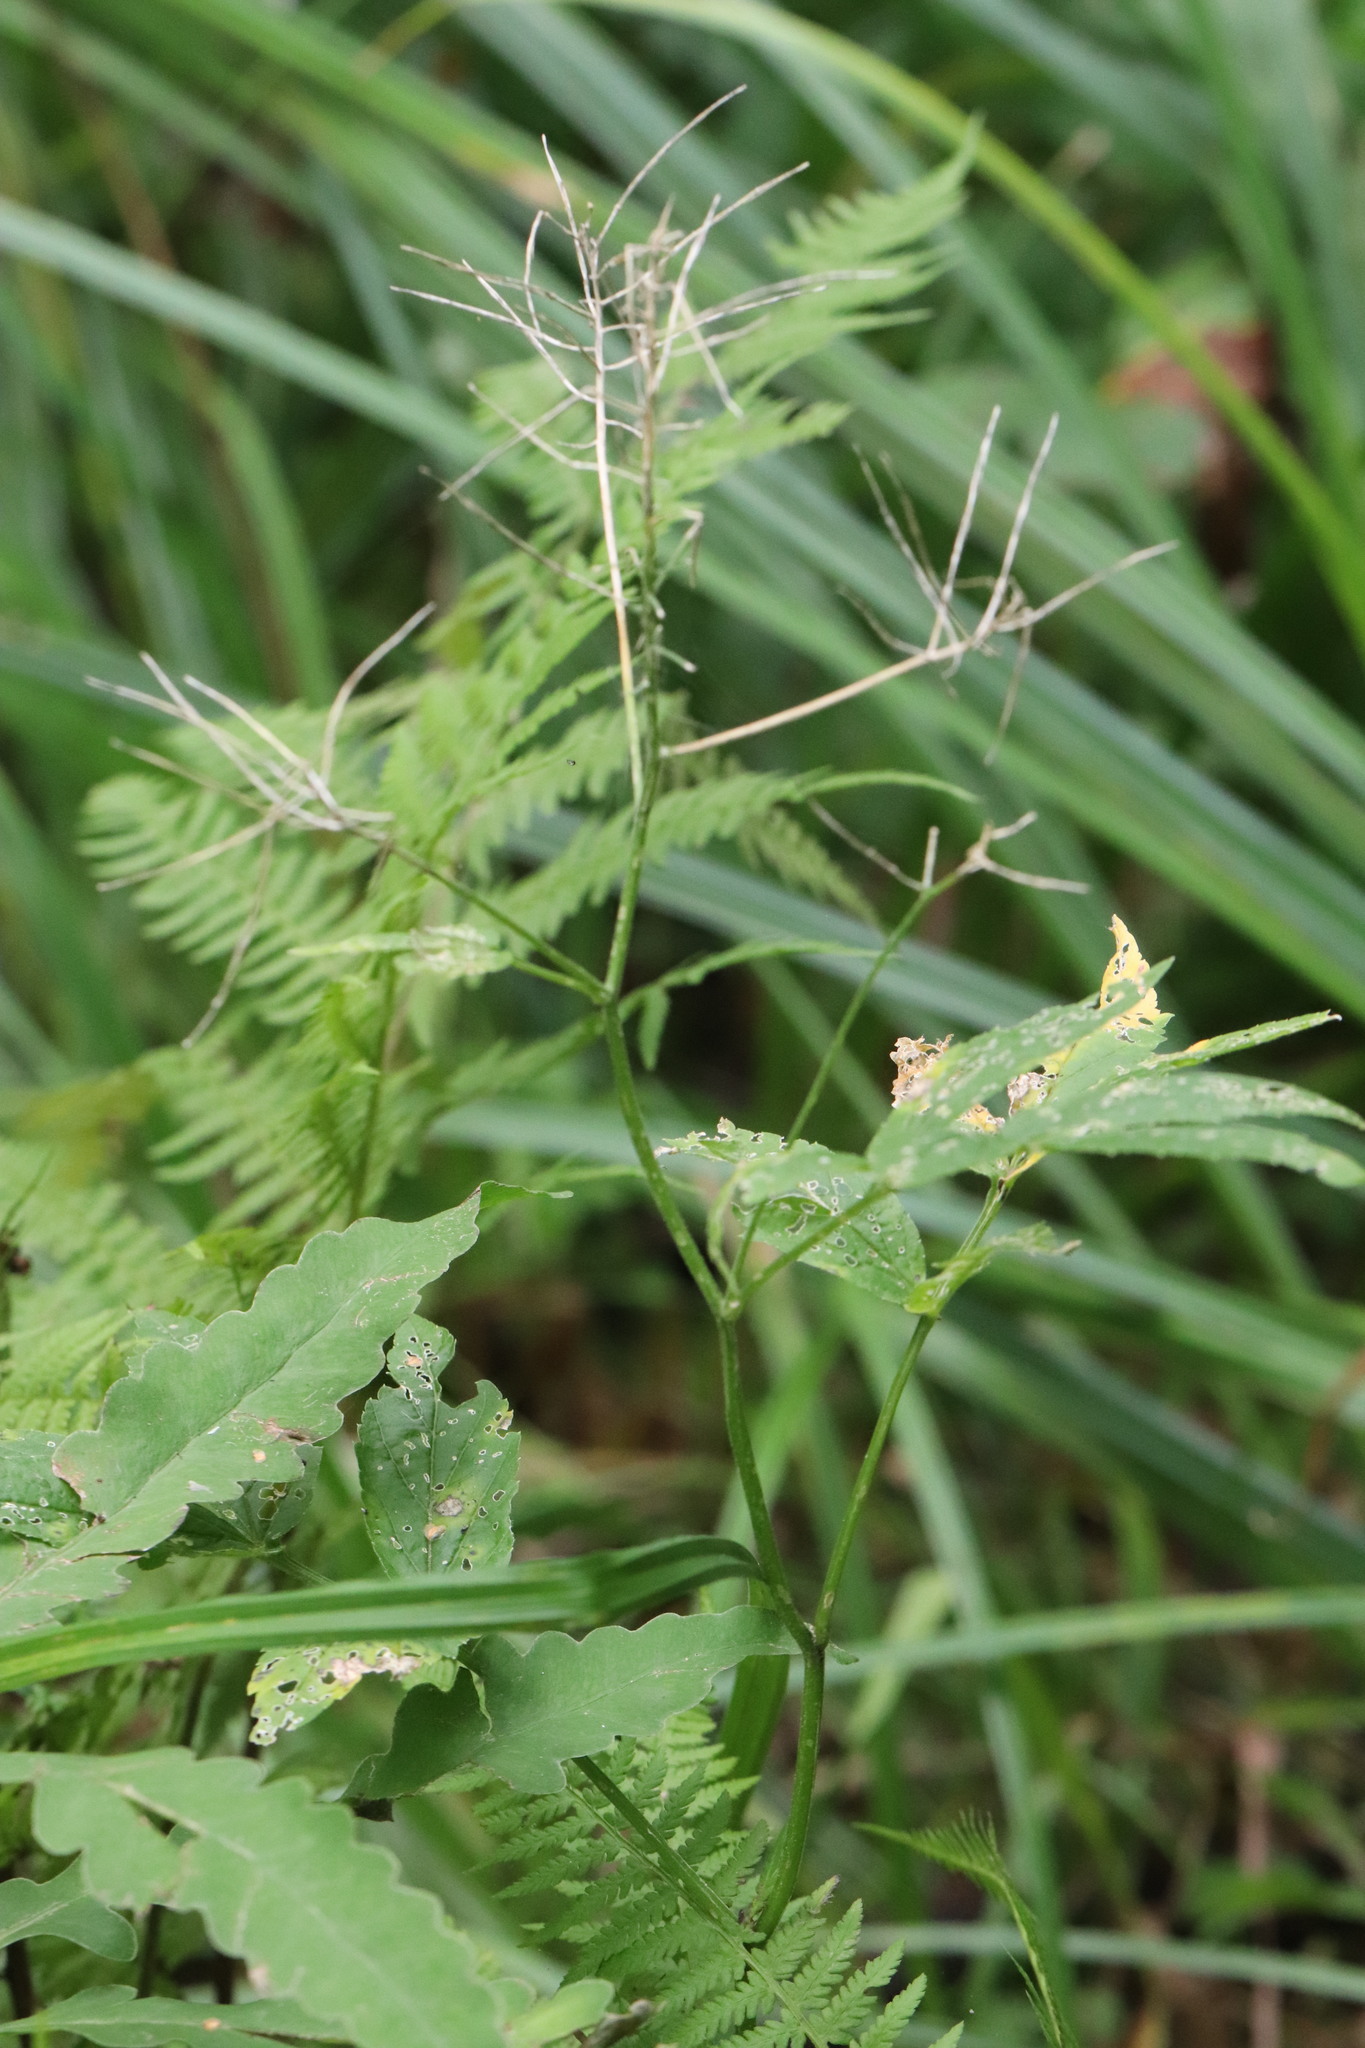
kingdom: Plantae
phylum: Tracheophyta
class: Magnoliopsida
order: Brassicales
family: Brassicaceae
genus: Cardamine
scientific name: Cardamine leucantha
